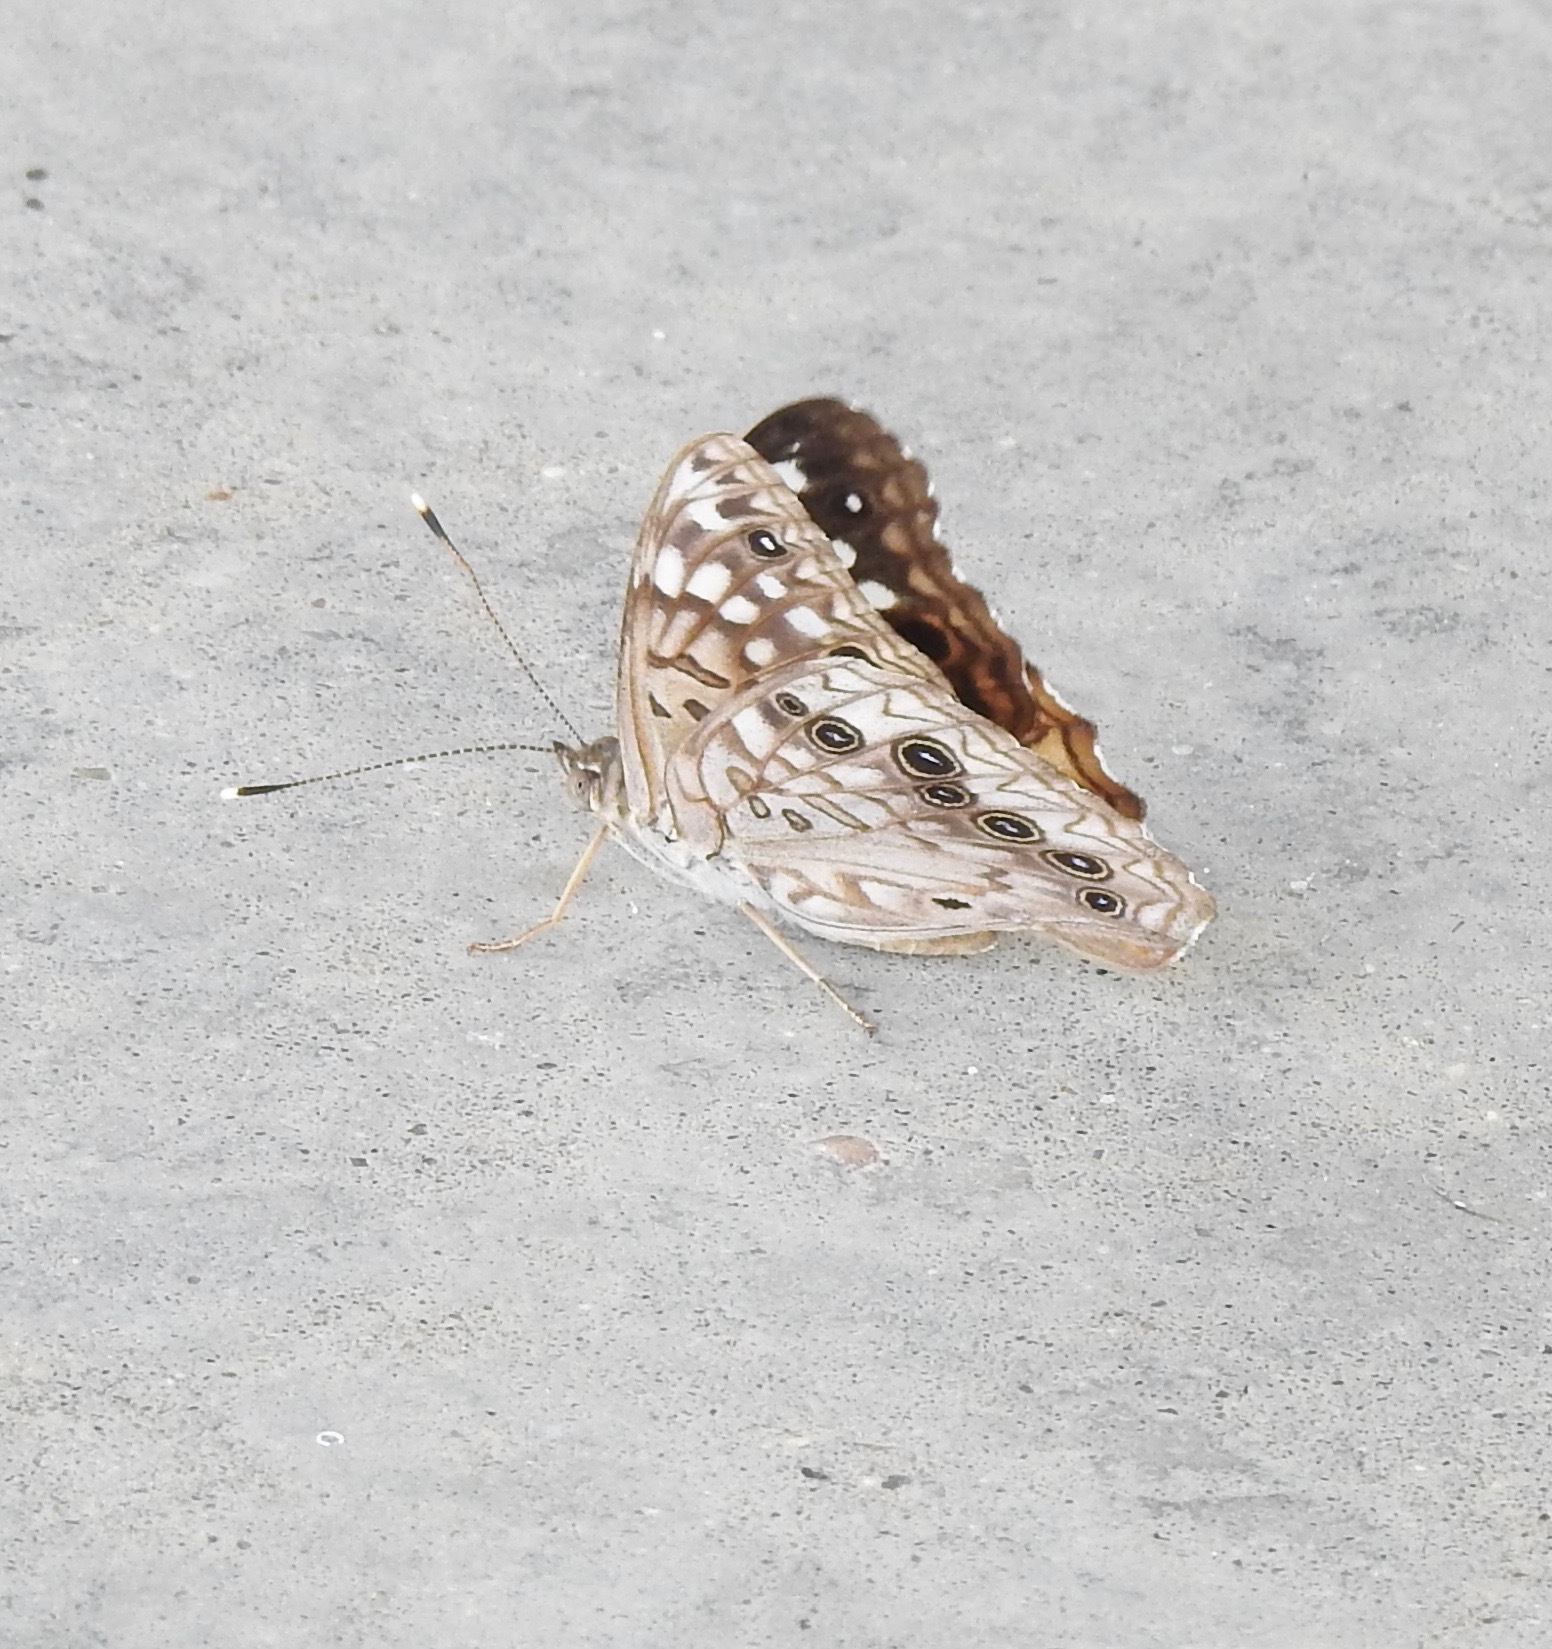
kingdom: Animalia
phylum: Arthropoda
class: Insecta
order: Lepidoptera
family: Nymphalidae
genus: Asterocampa
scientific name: Asterocampa celtis
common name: Hackberry emperor
